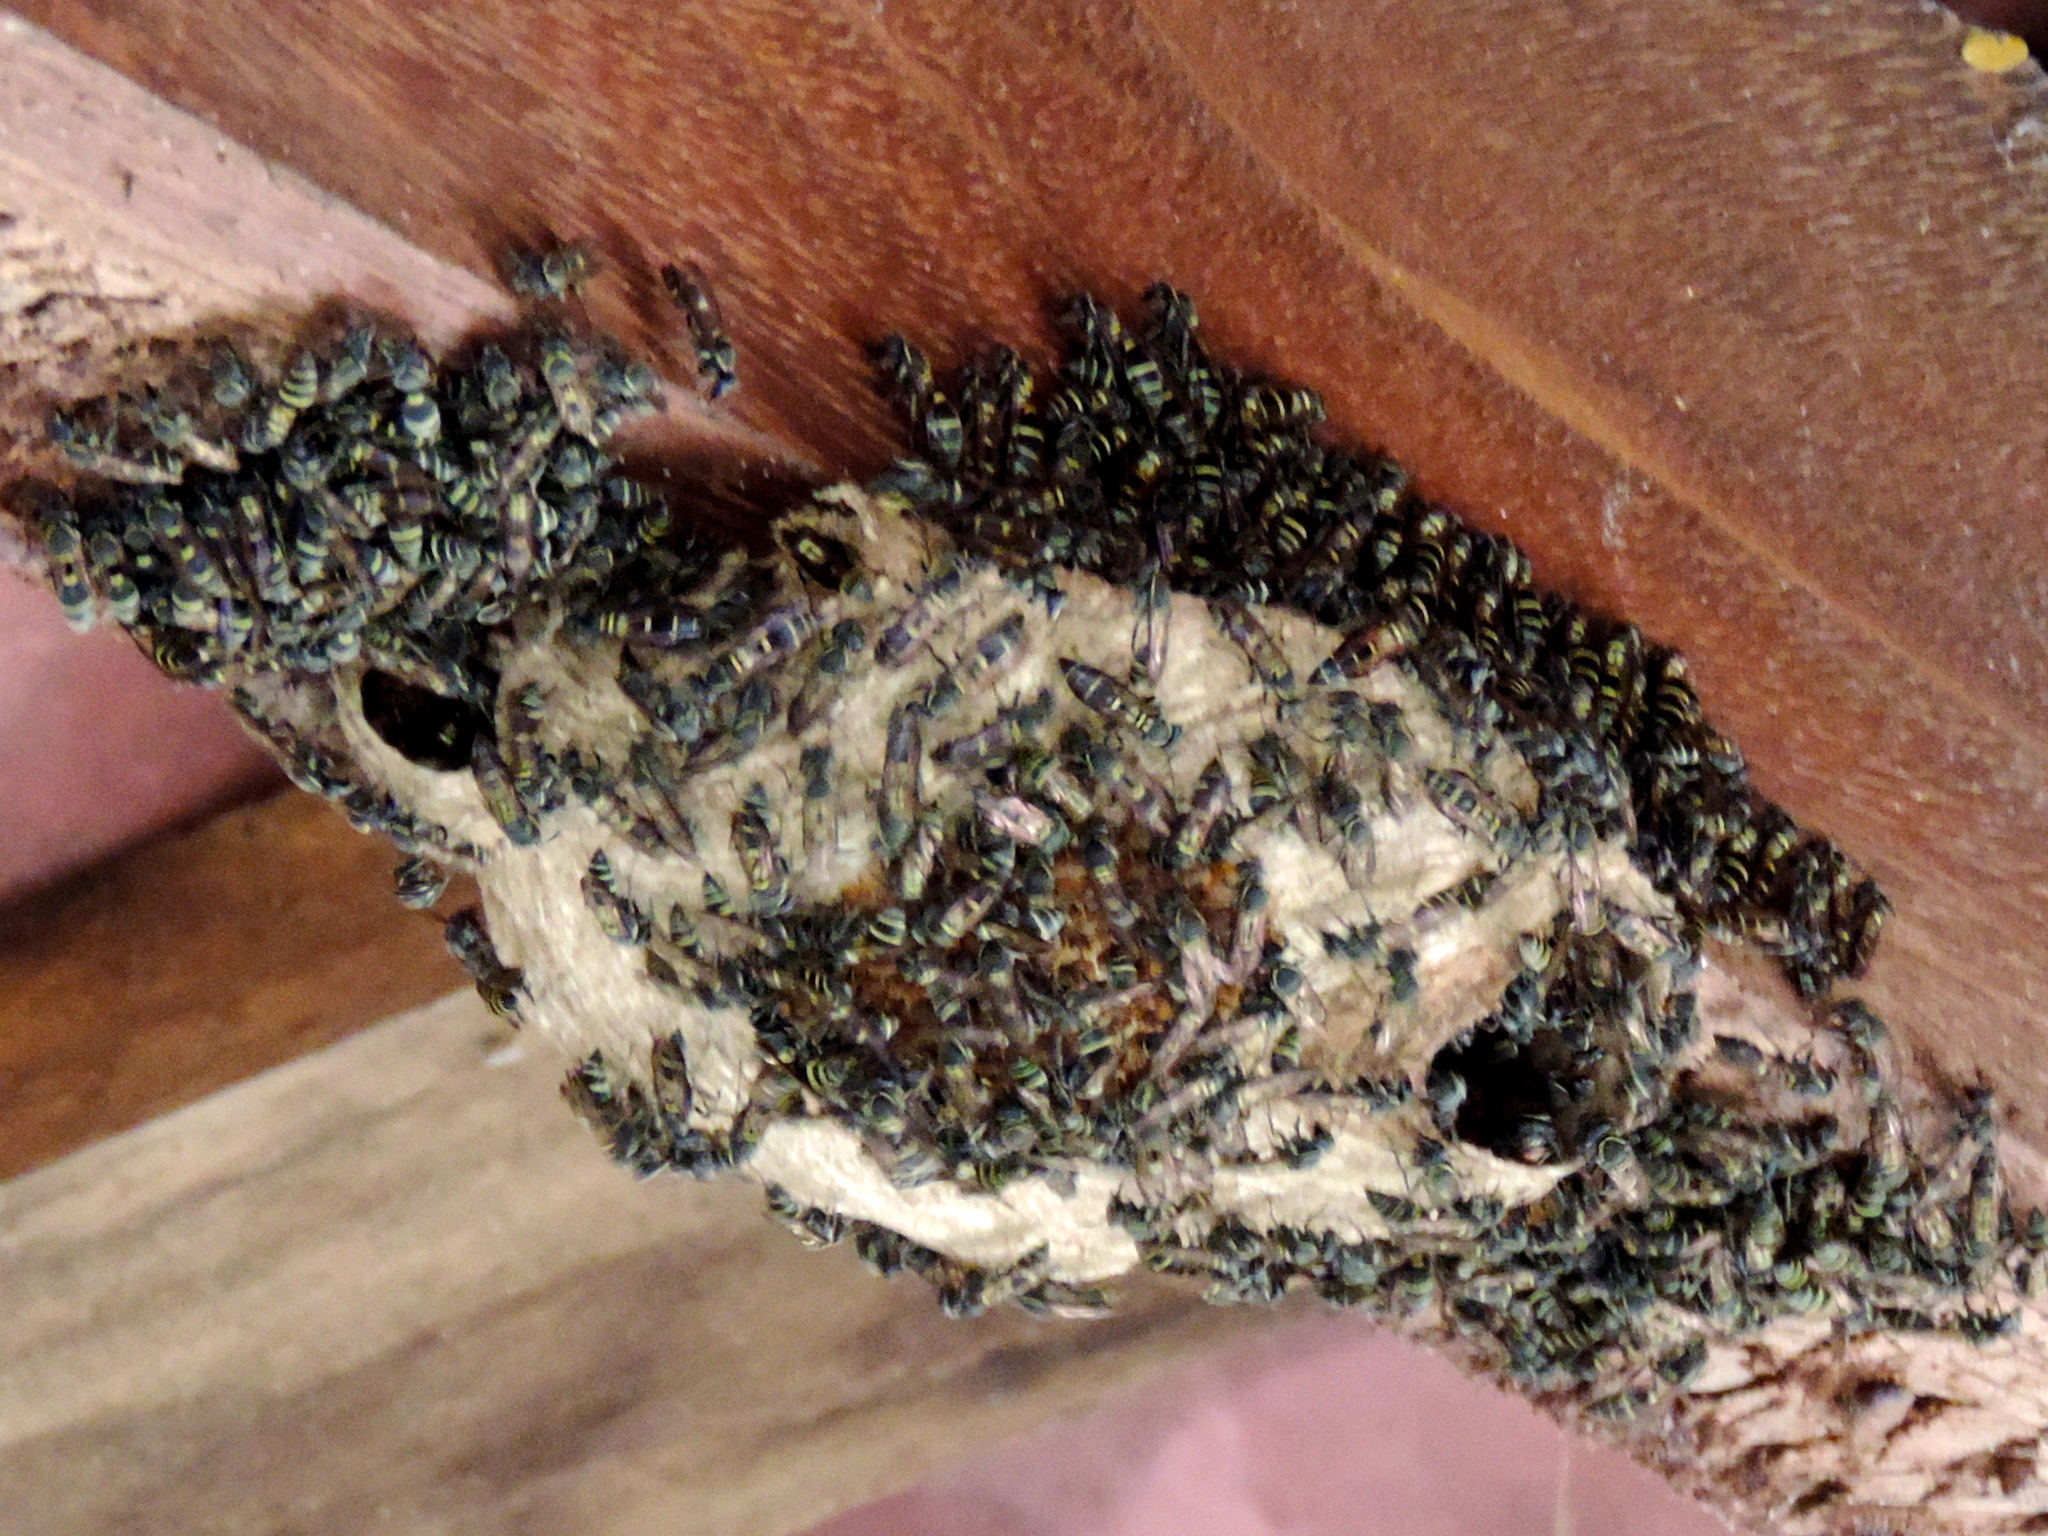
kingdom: Animalia
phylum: Arthropoda
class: Insecta
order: Hymenoptera
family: Vespidae
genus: Myrapetra
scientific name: Myrapetra
